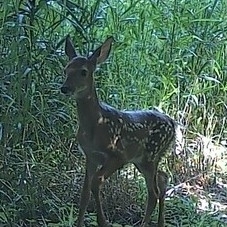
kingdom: Animalia
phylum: Chordata
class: Mammalia
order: Artiodactyla
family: Cervidae
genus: Odocoileus
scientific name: Odocoileus virginianus
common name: White-tailed deer
